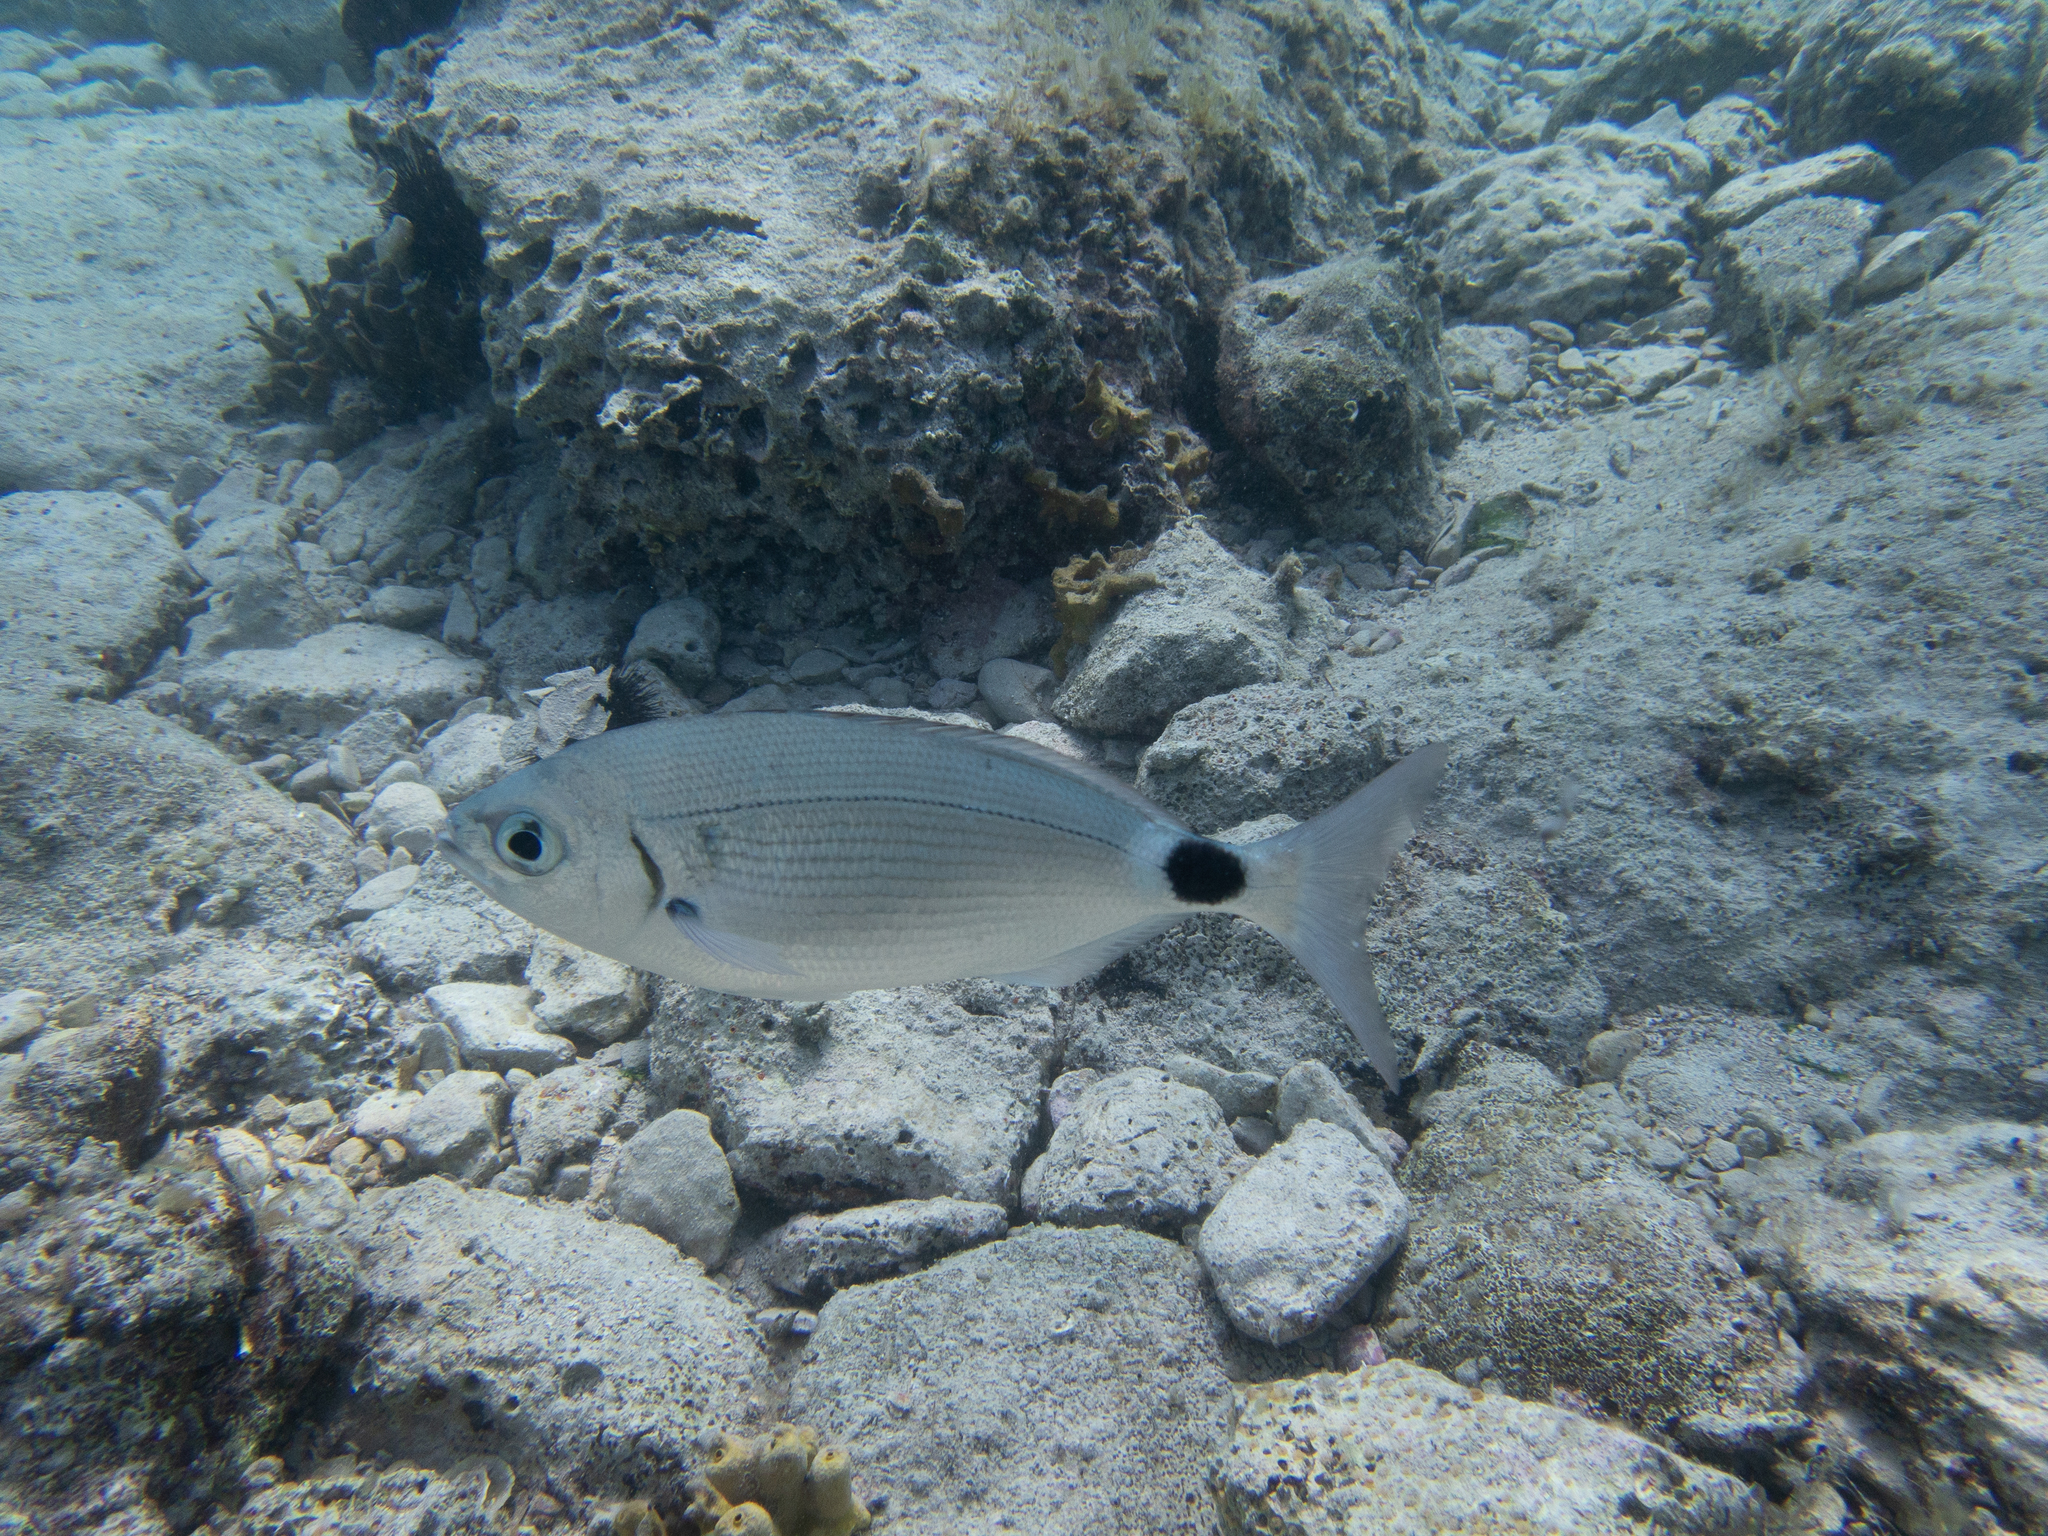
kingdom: Animalia
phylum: Chordata
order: Perciformes
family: Sparidae
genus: Oblada
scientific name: Oblada melanura
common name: Saddled seabream
